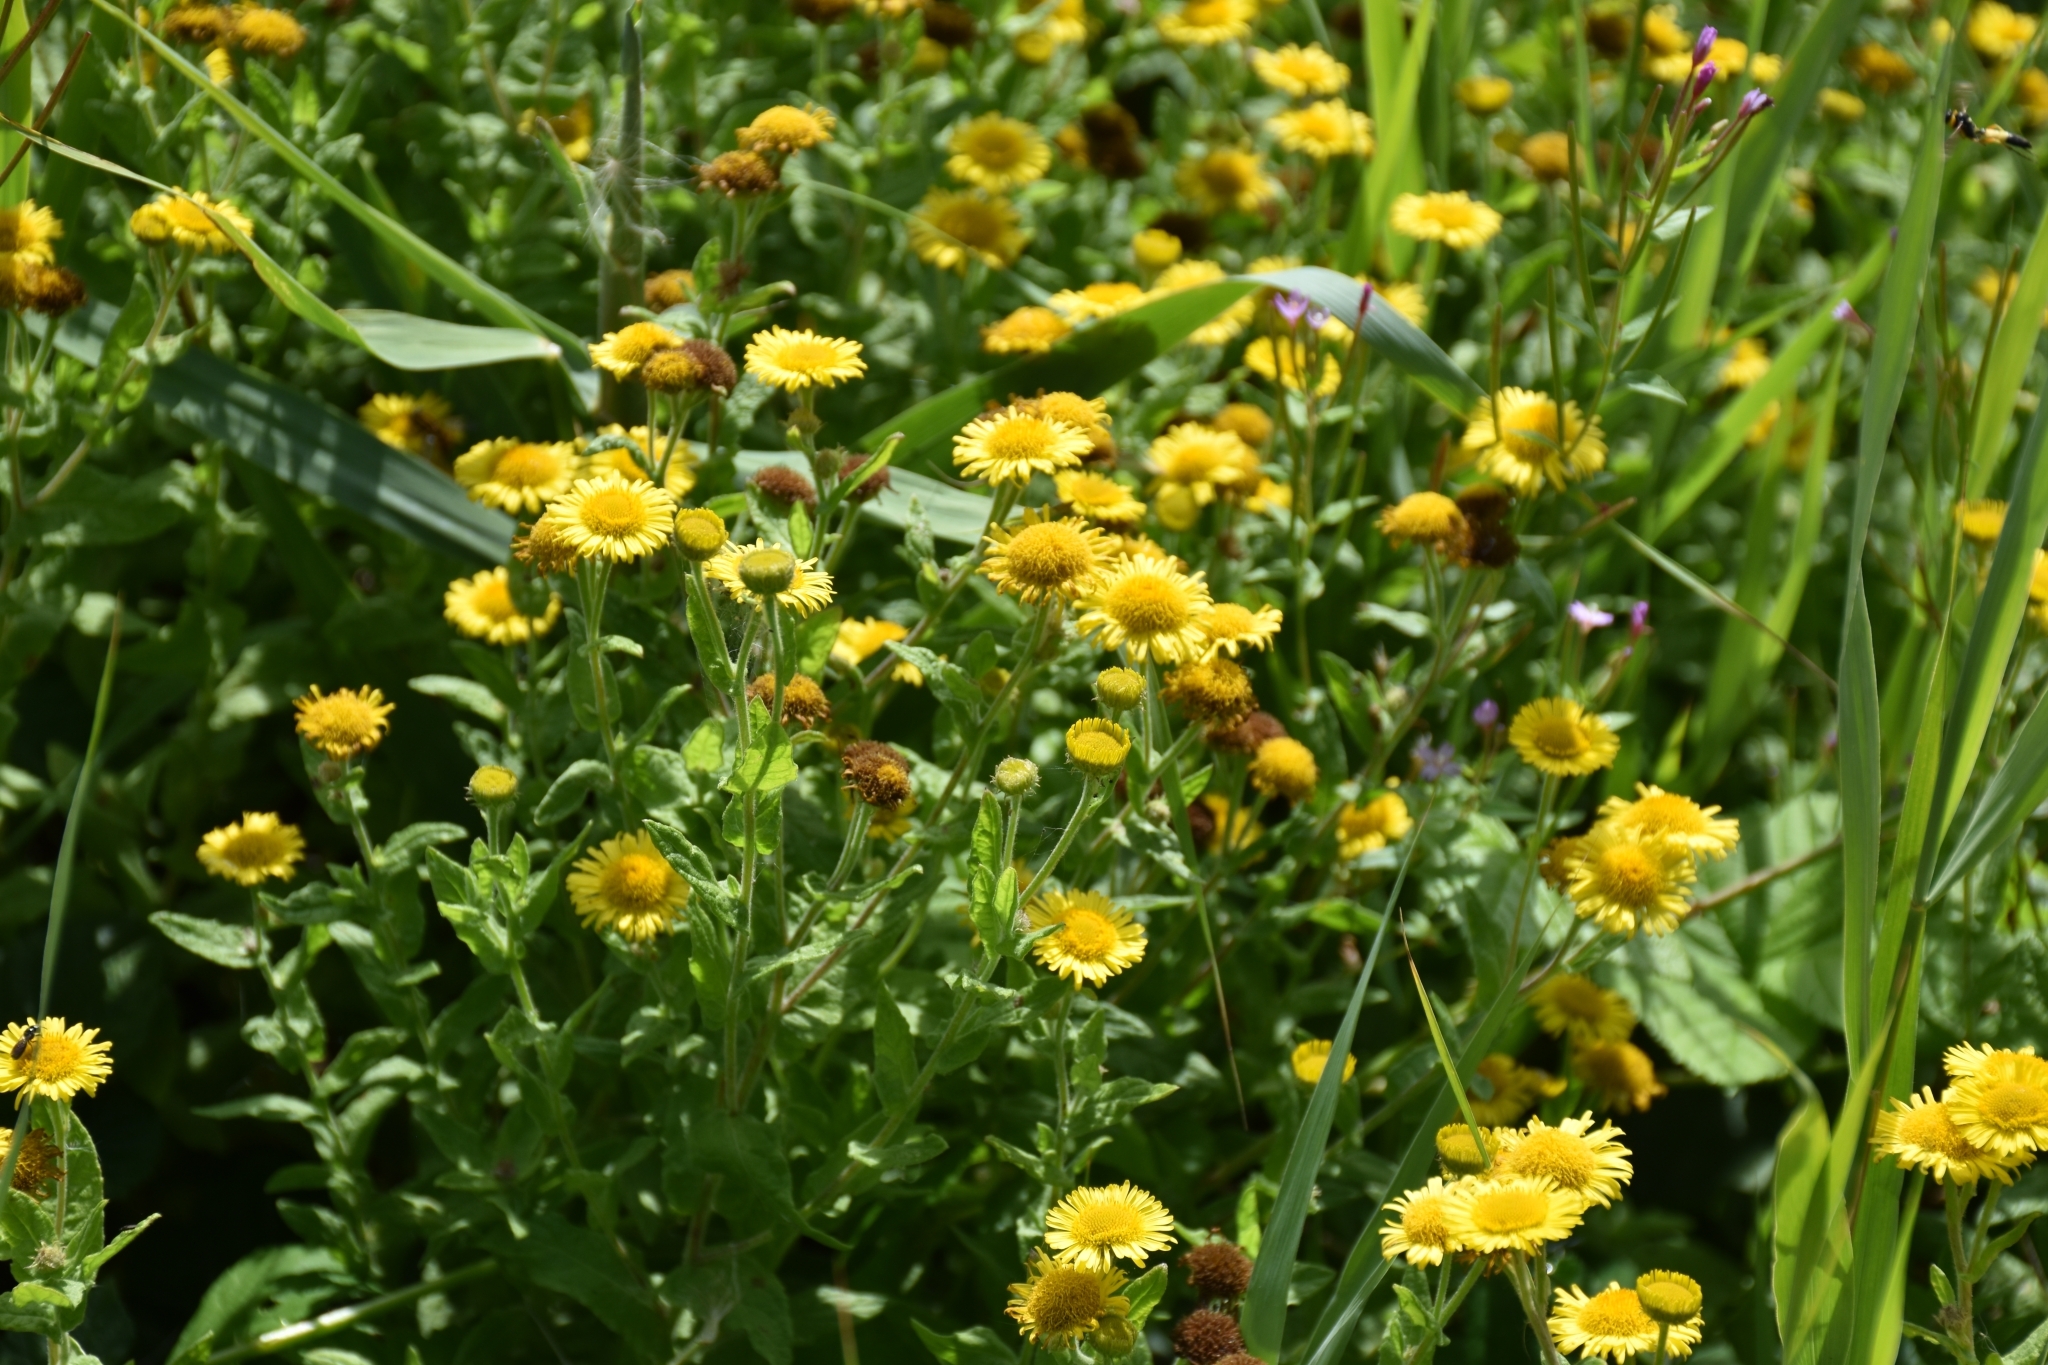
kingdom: Plantae
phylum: Tracheophyta
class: Magnoliopsida
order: Asterales
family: Asteraceae
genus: Pulicaria
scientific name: Pulicaria dysenterica
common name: Common fleabane
